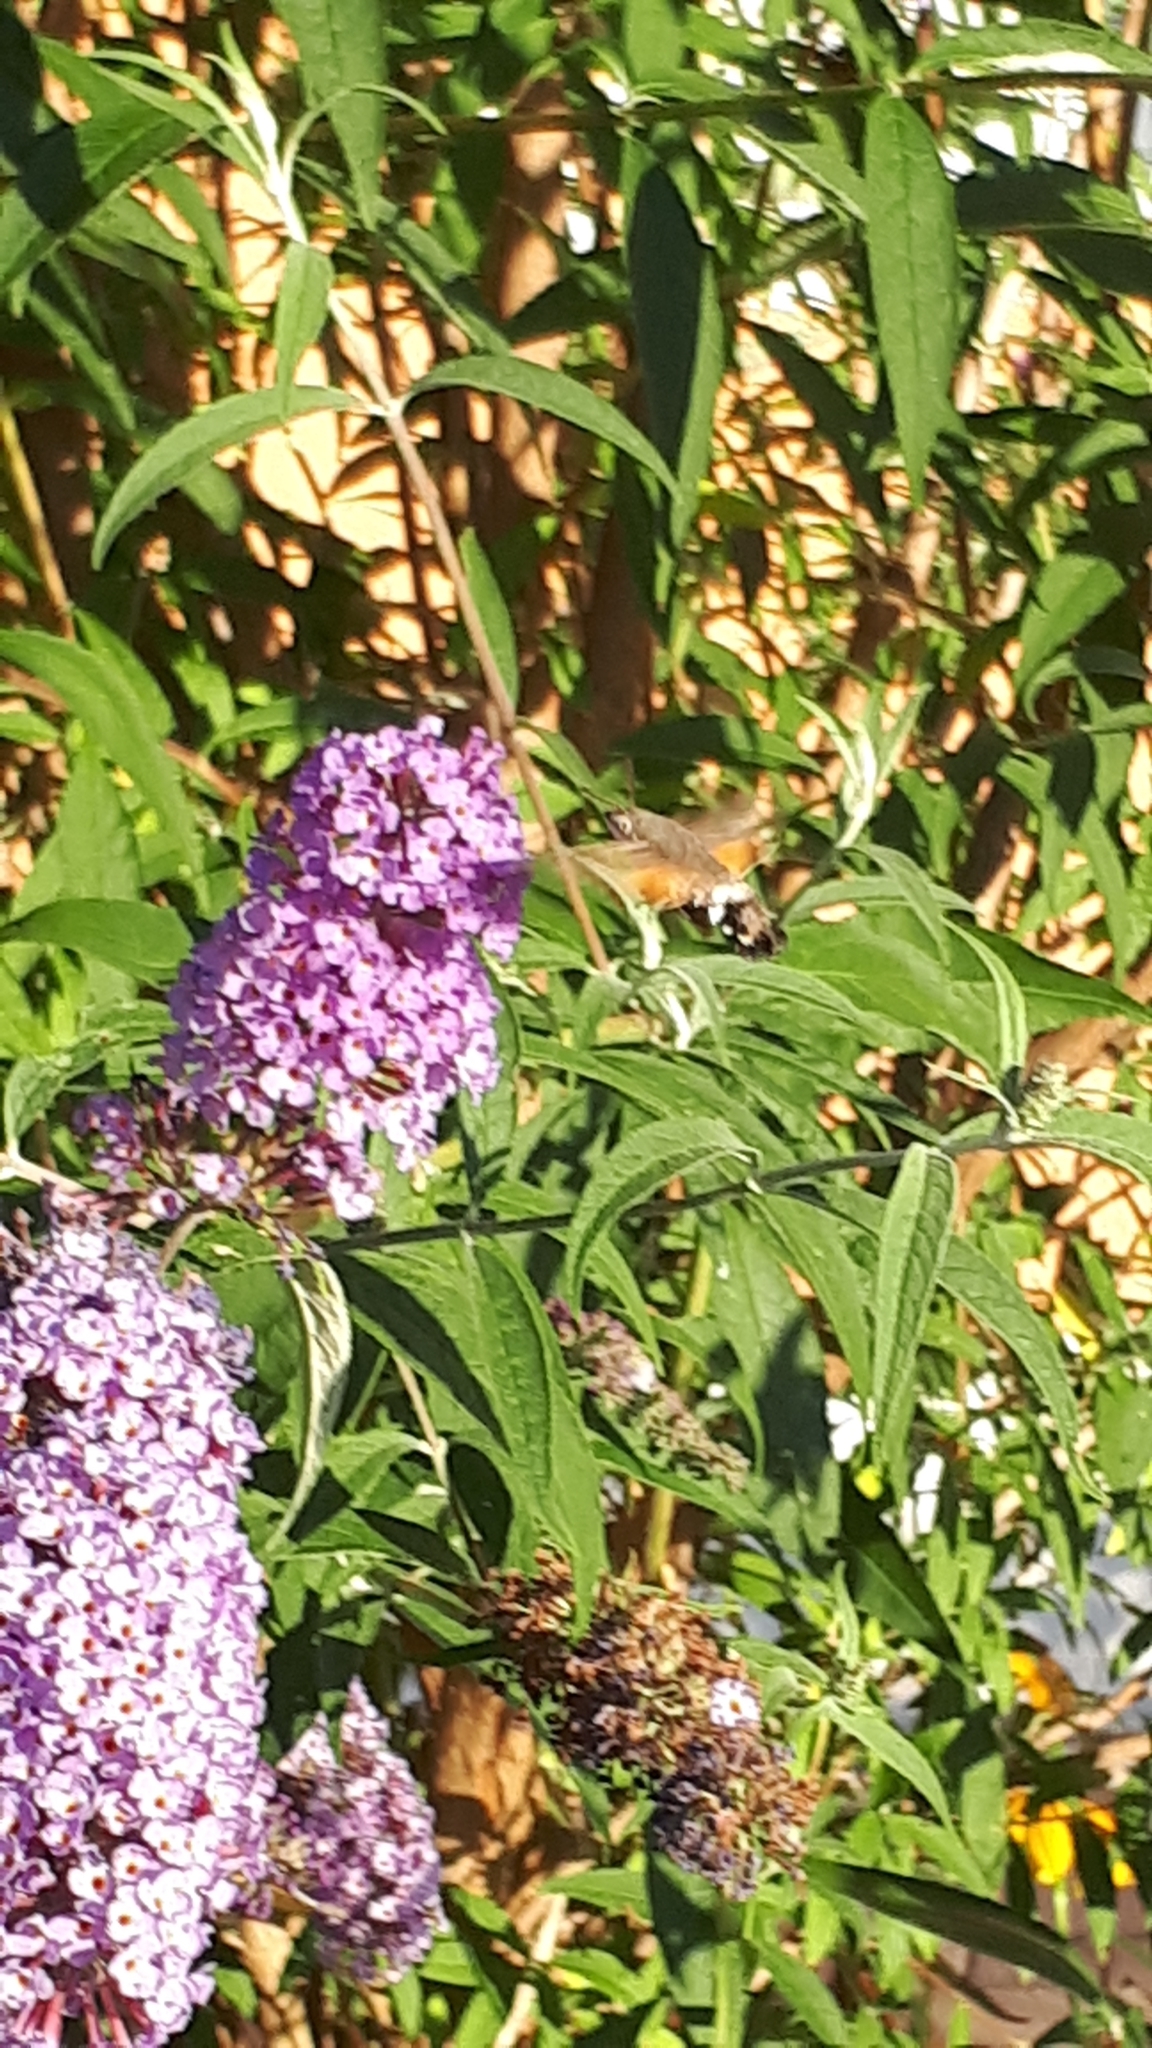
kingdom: Animalia
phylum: Arthropoda
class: Insecta
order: Lepidoptera
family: Sphingidae
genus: Macroglossum
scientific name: Macroglossum stellatarum
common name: Humming-bird hawk-moth
